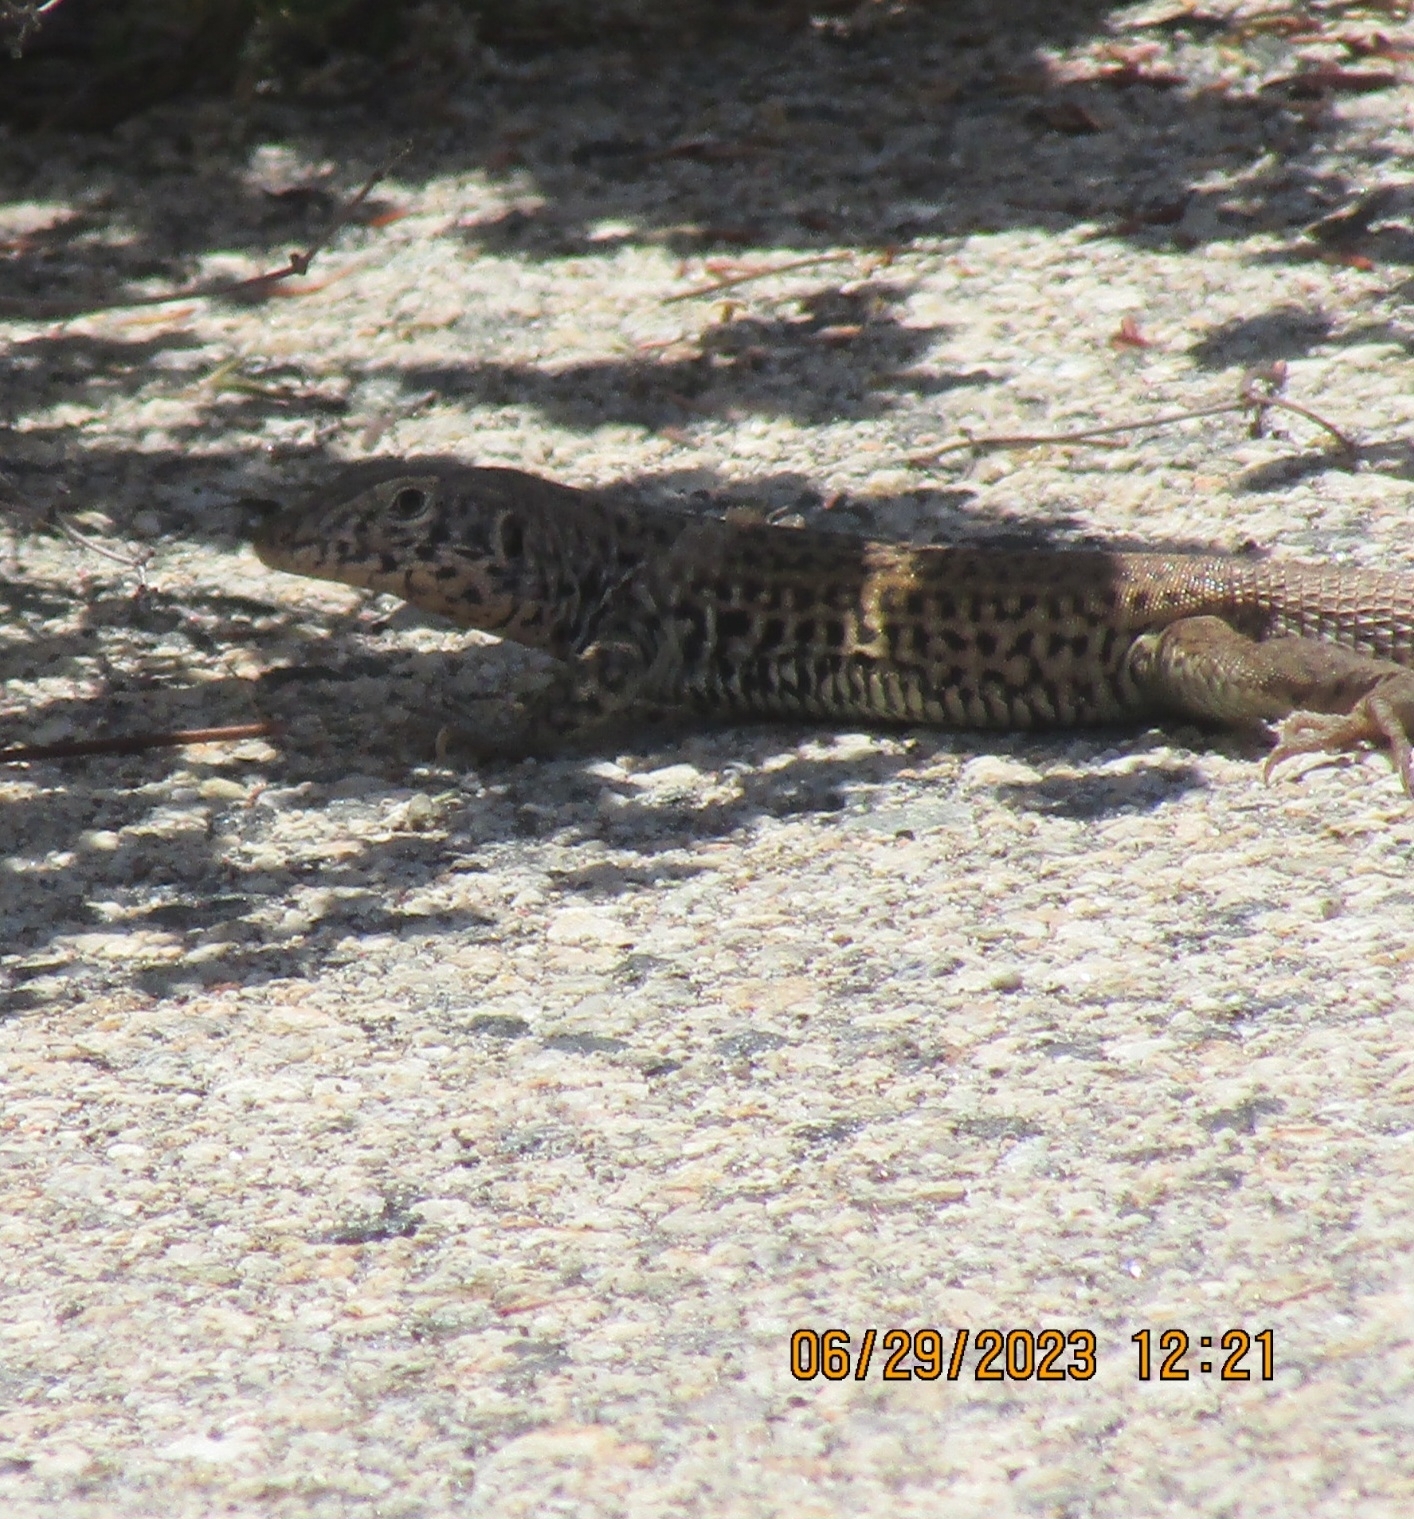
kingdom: Animalia
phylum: Chordata
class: Squamata
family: Teiidae
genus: Aspidoscelis
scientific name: Aspidoscelis tigris
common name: Tiger whiptail
